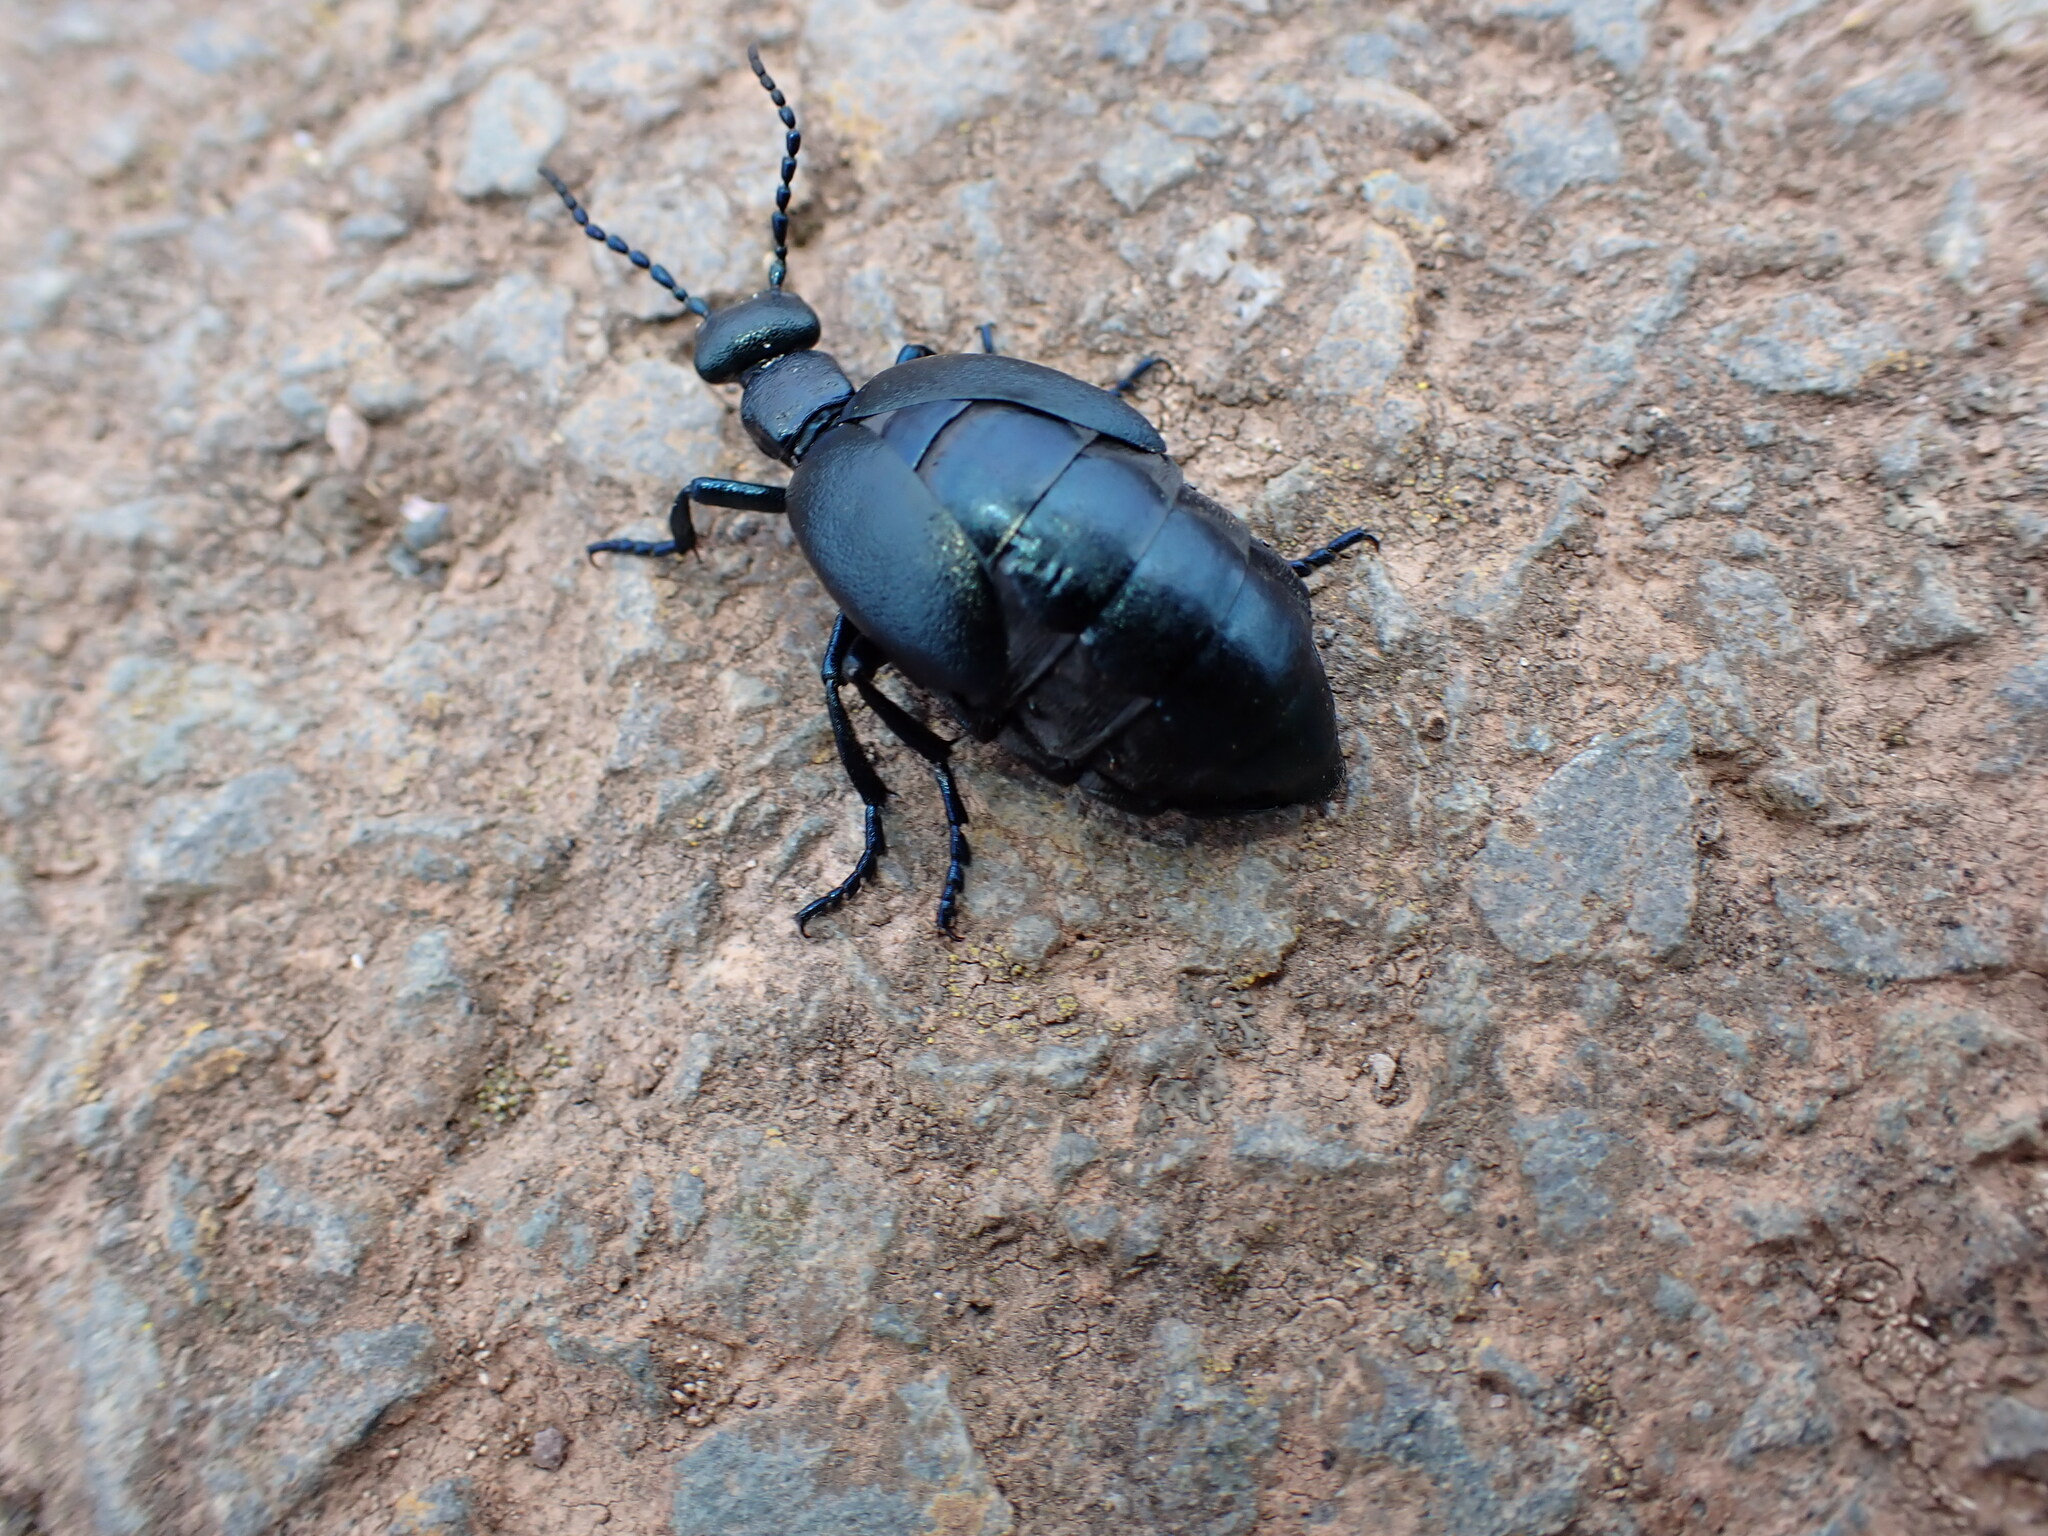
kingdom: Animalia
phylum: Arthropoda
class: Insecta
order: Coleoptera
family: Meloidae
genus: Meloe
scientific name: Meloe violaceus
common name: Violet oil-beetle
